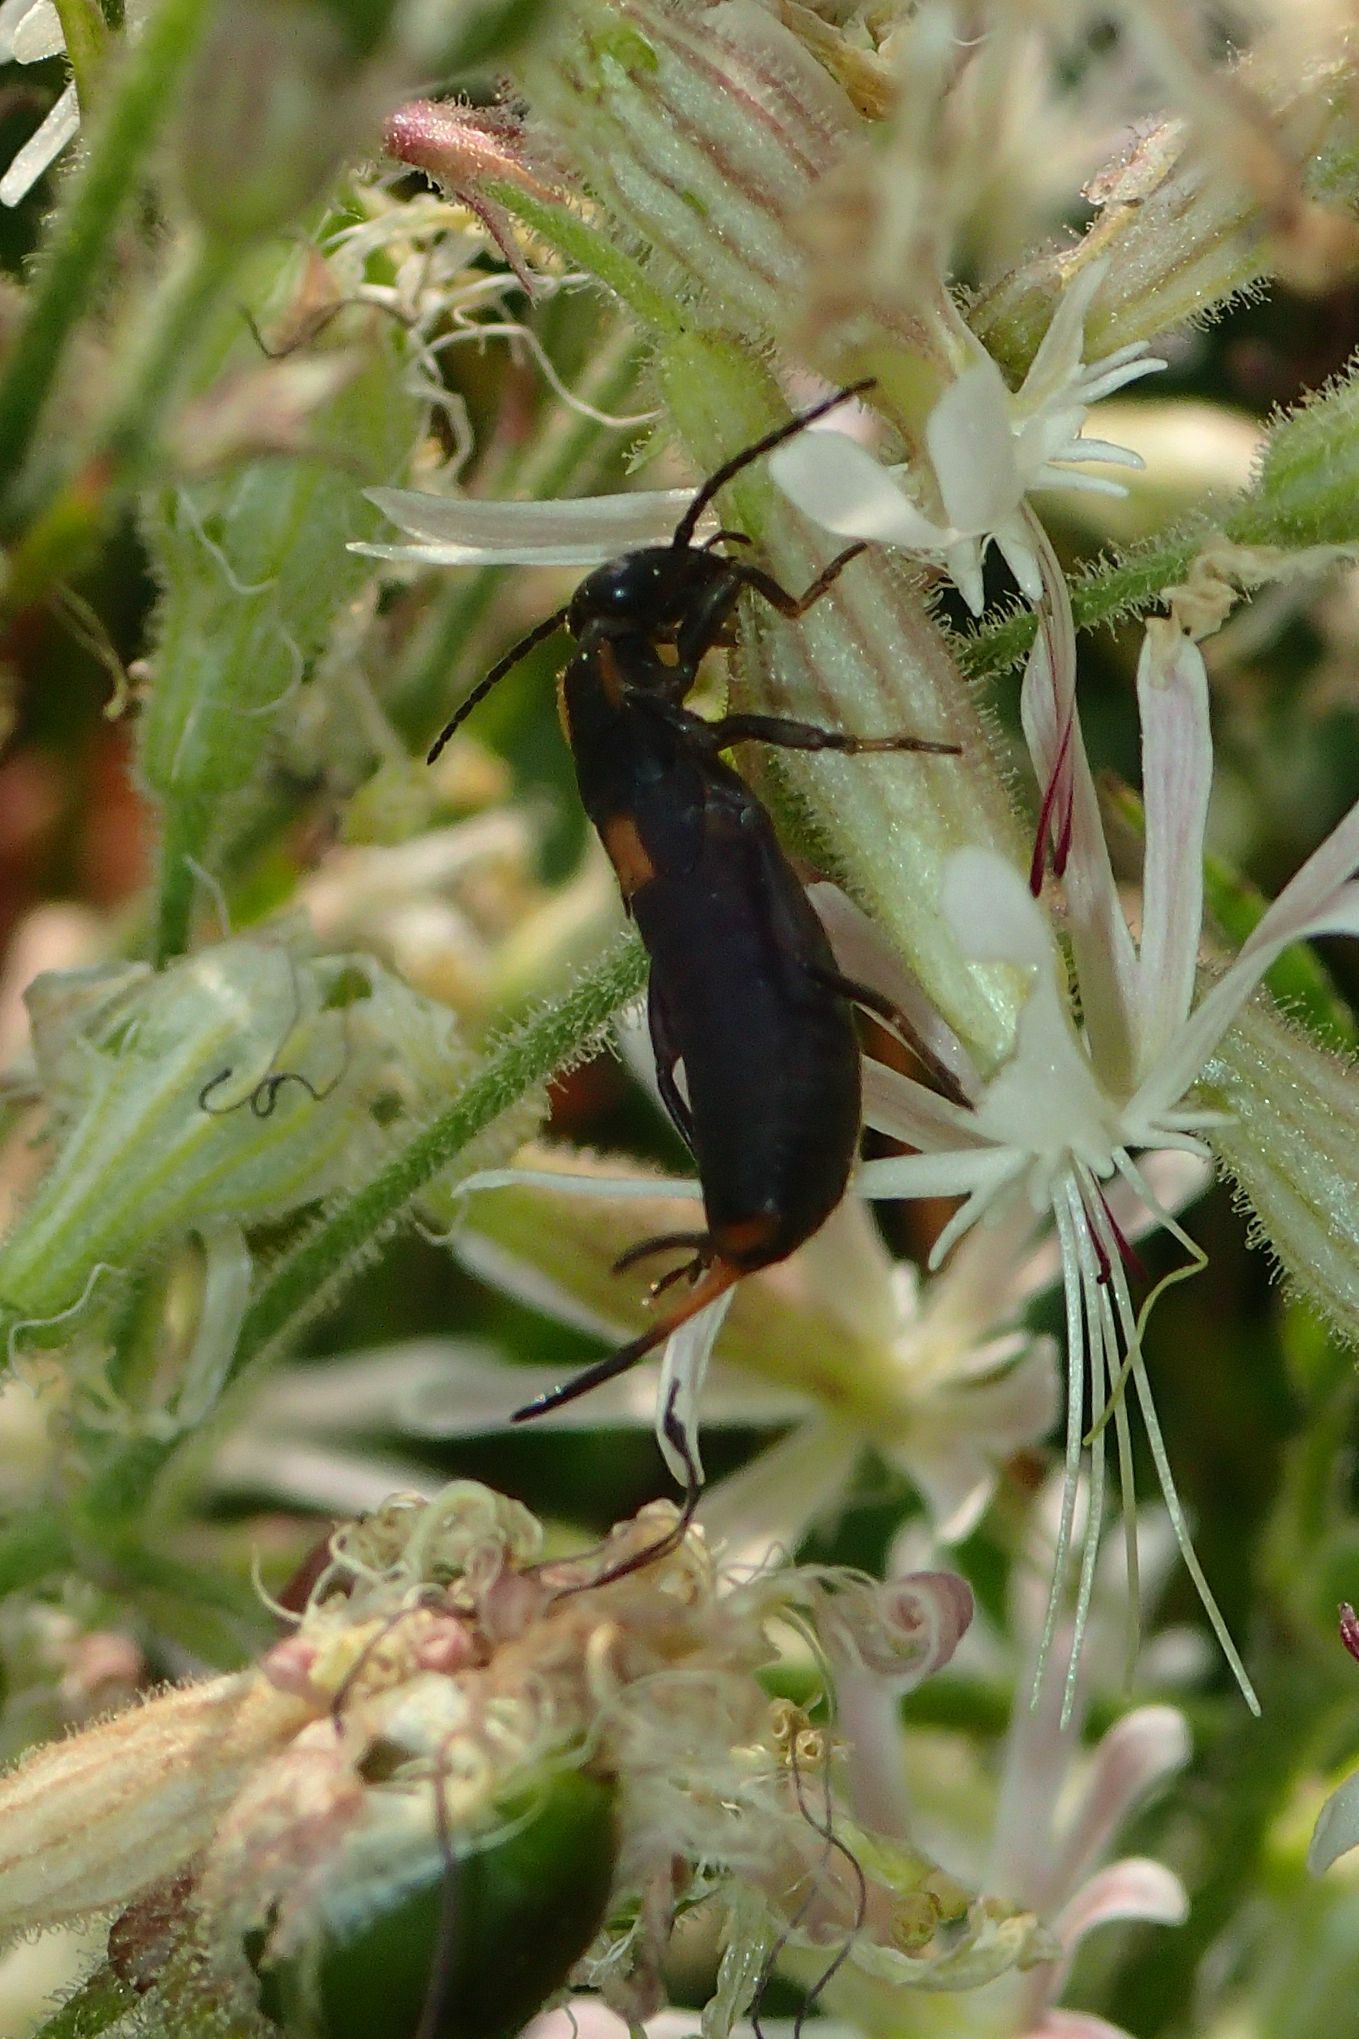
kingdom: Animalia
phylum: Arthropoda
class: Insecta
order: Dermaptera
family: Forficulidae
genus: Anechura
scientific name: Anechura bipunctata
